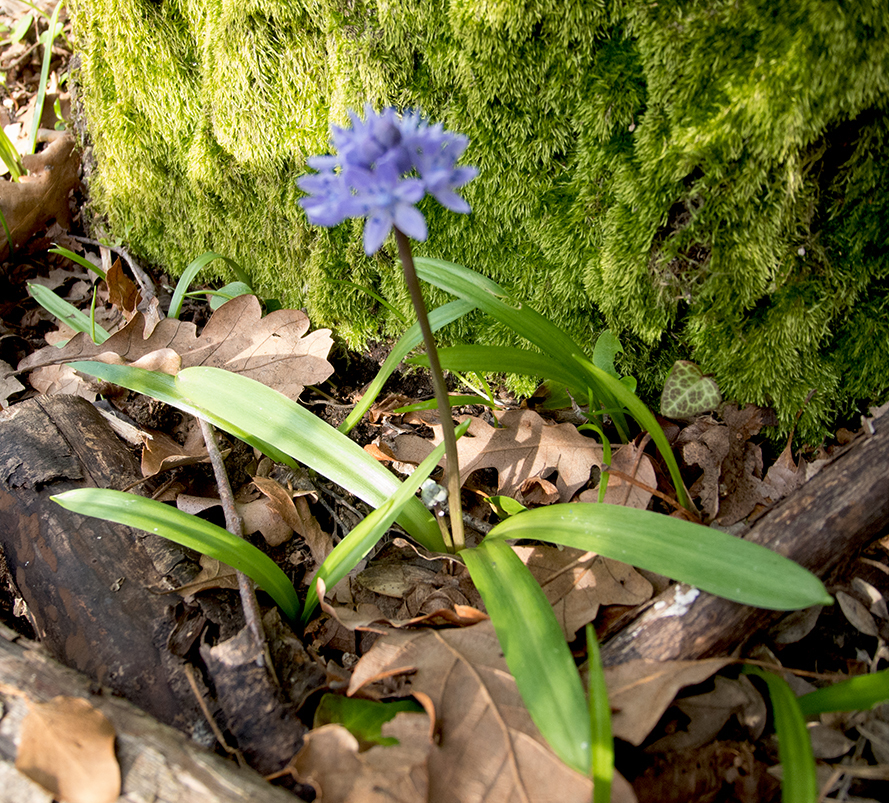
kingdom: Plantae
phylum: Tracheophyta
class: Liliopsida
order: Asparagales
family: Asparagaceae
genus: Scilla
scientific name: Scilla bithynica
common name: Turkish squill
